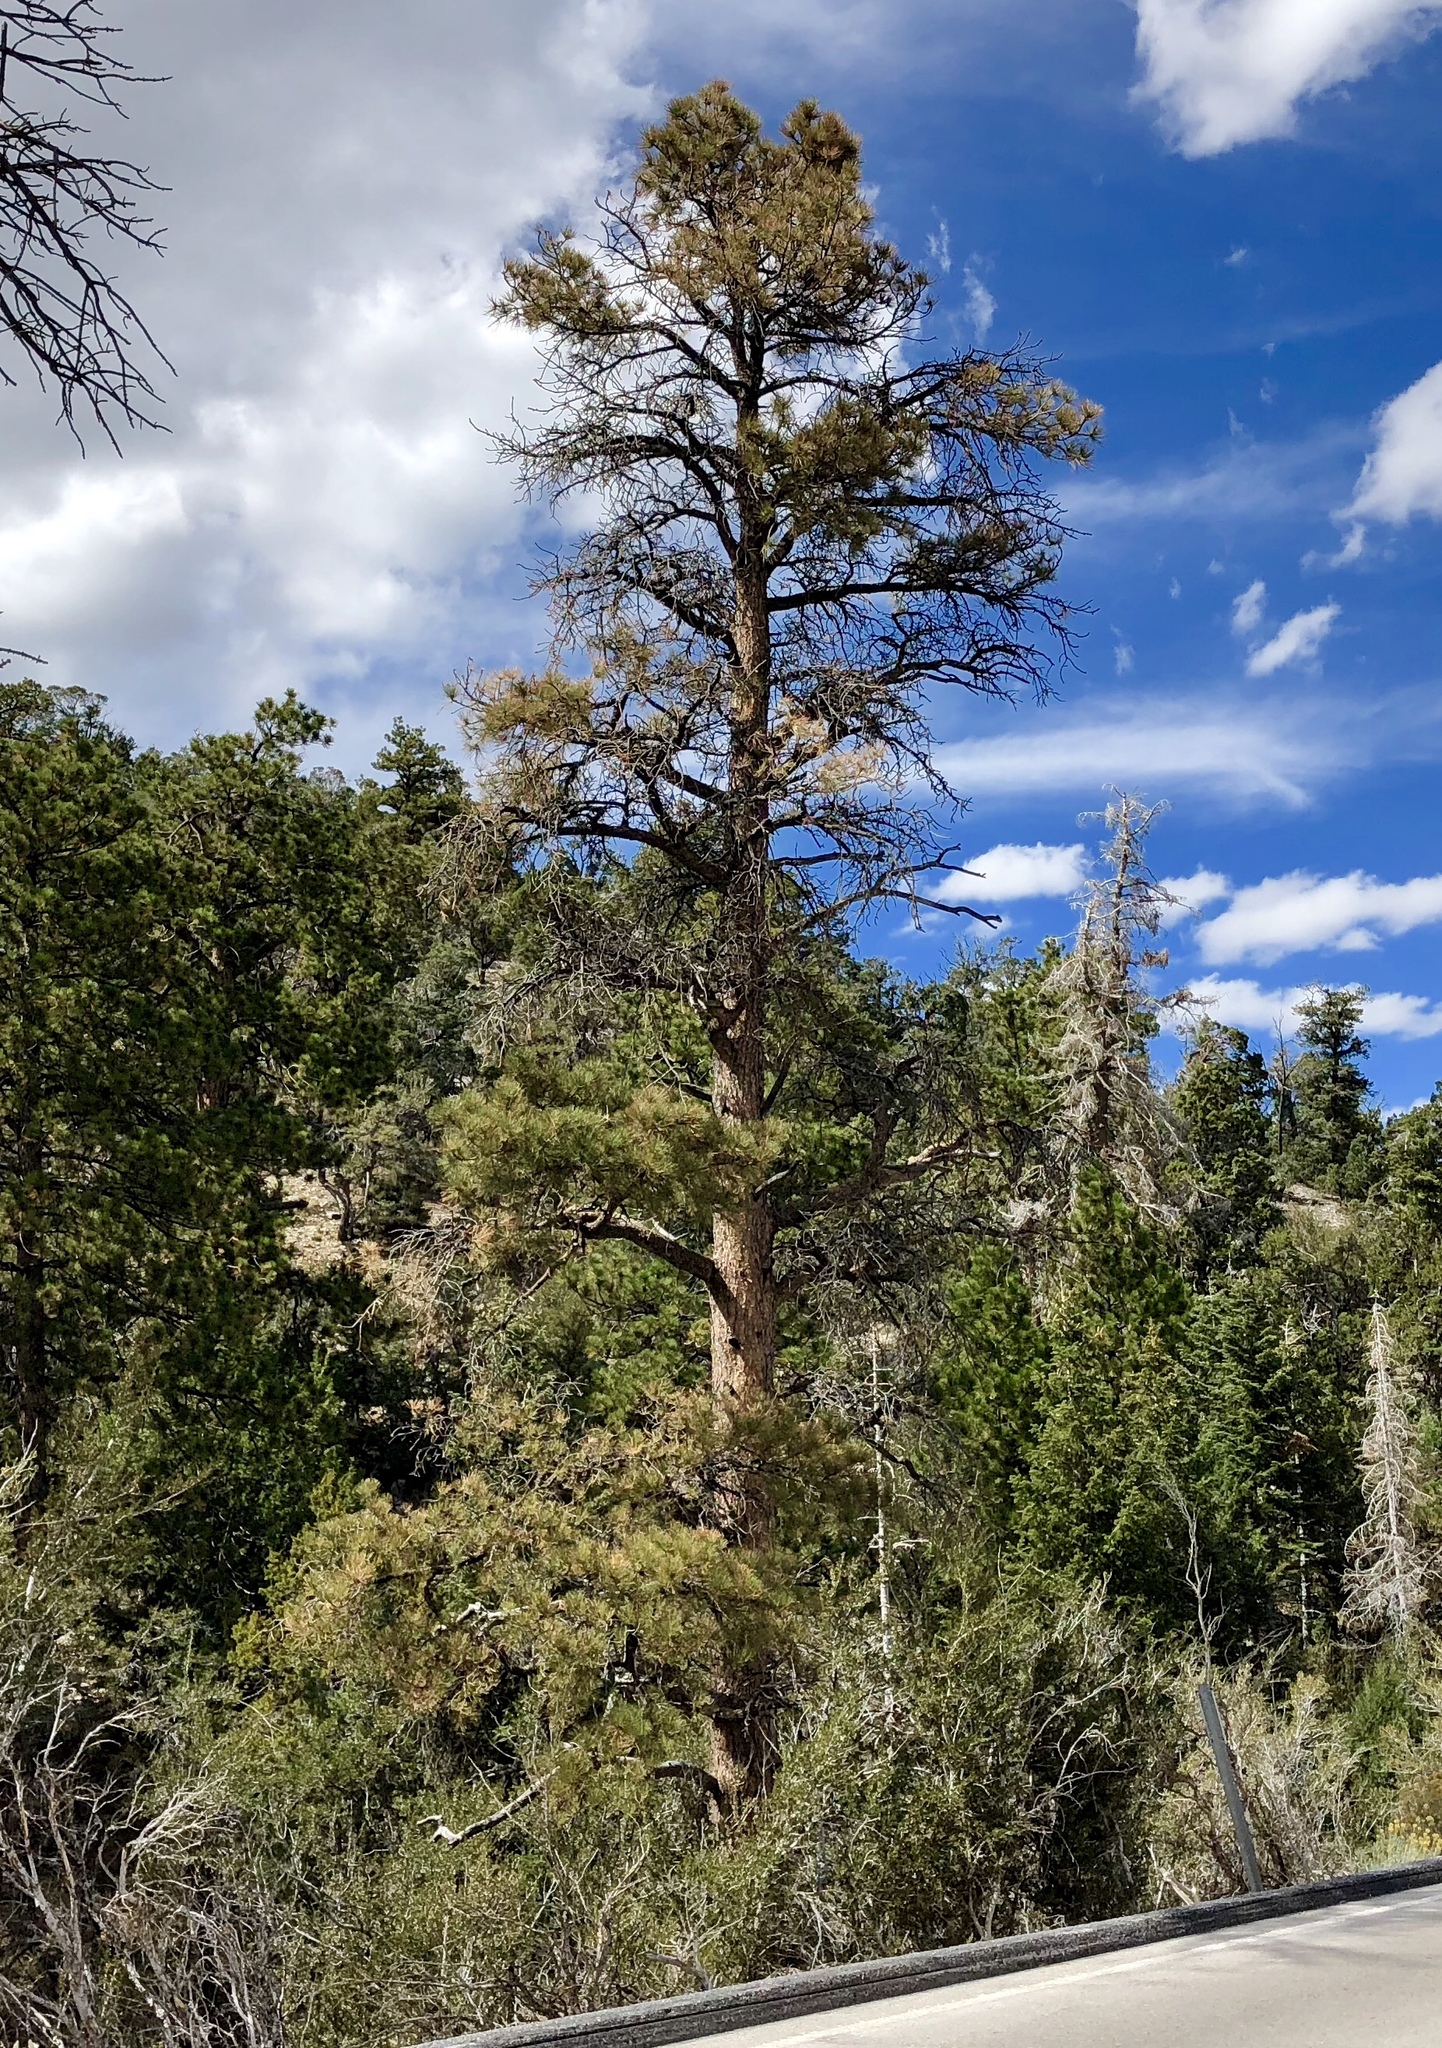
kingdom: Plantae
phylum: Tracheophyta
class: Pinopsida
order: Pinales
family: Pinaceae
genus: Pinus
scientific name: Pinus ponderosa
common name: Western yellow-pine
